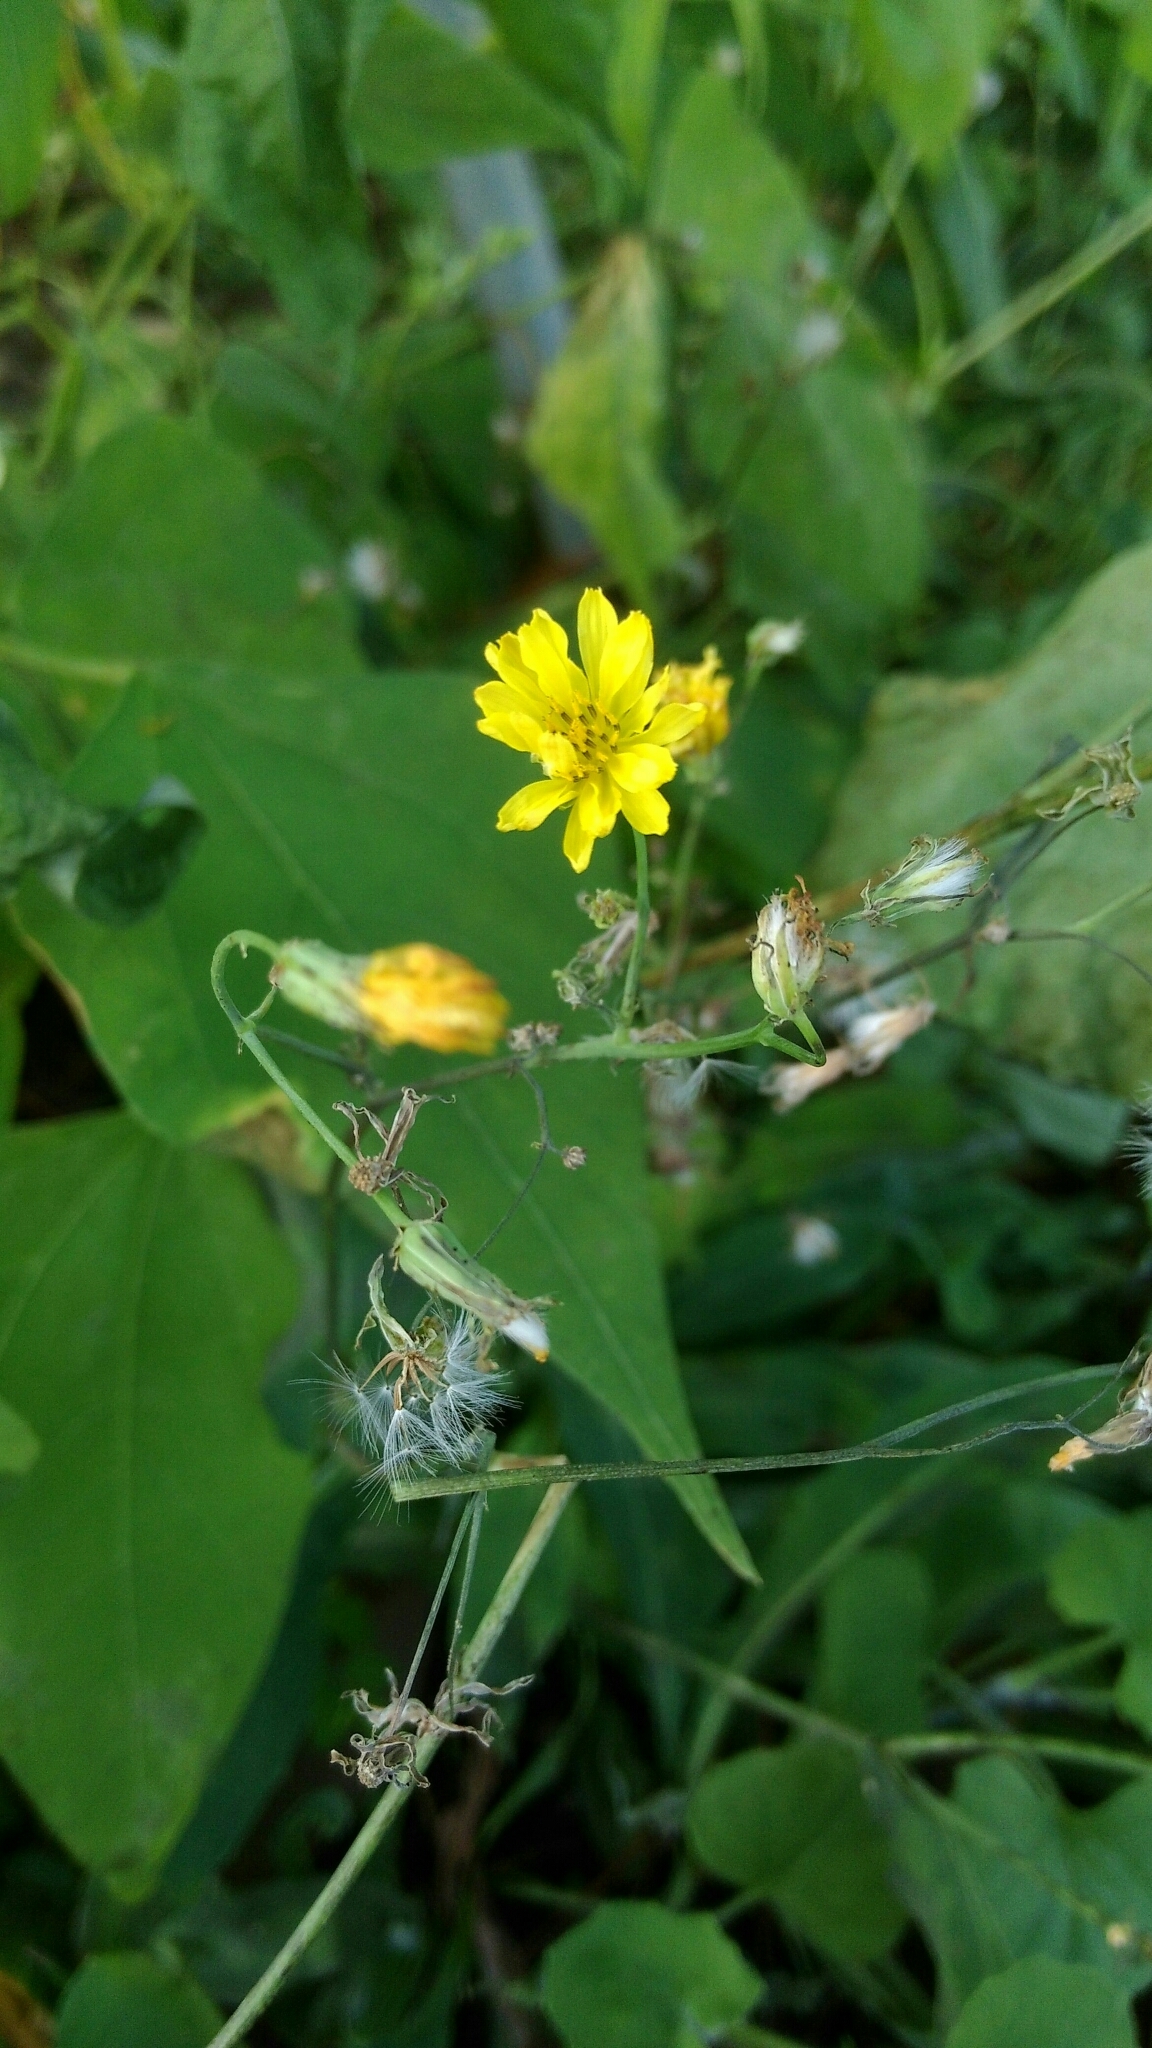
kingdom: Plantae
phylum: Tracheophyta
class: Magnoliopsida
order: Asterales
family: Asteraceae
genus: Youngia
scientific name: Youngia japonica
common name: Oriental false hawksbeard
